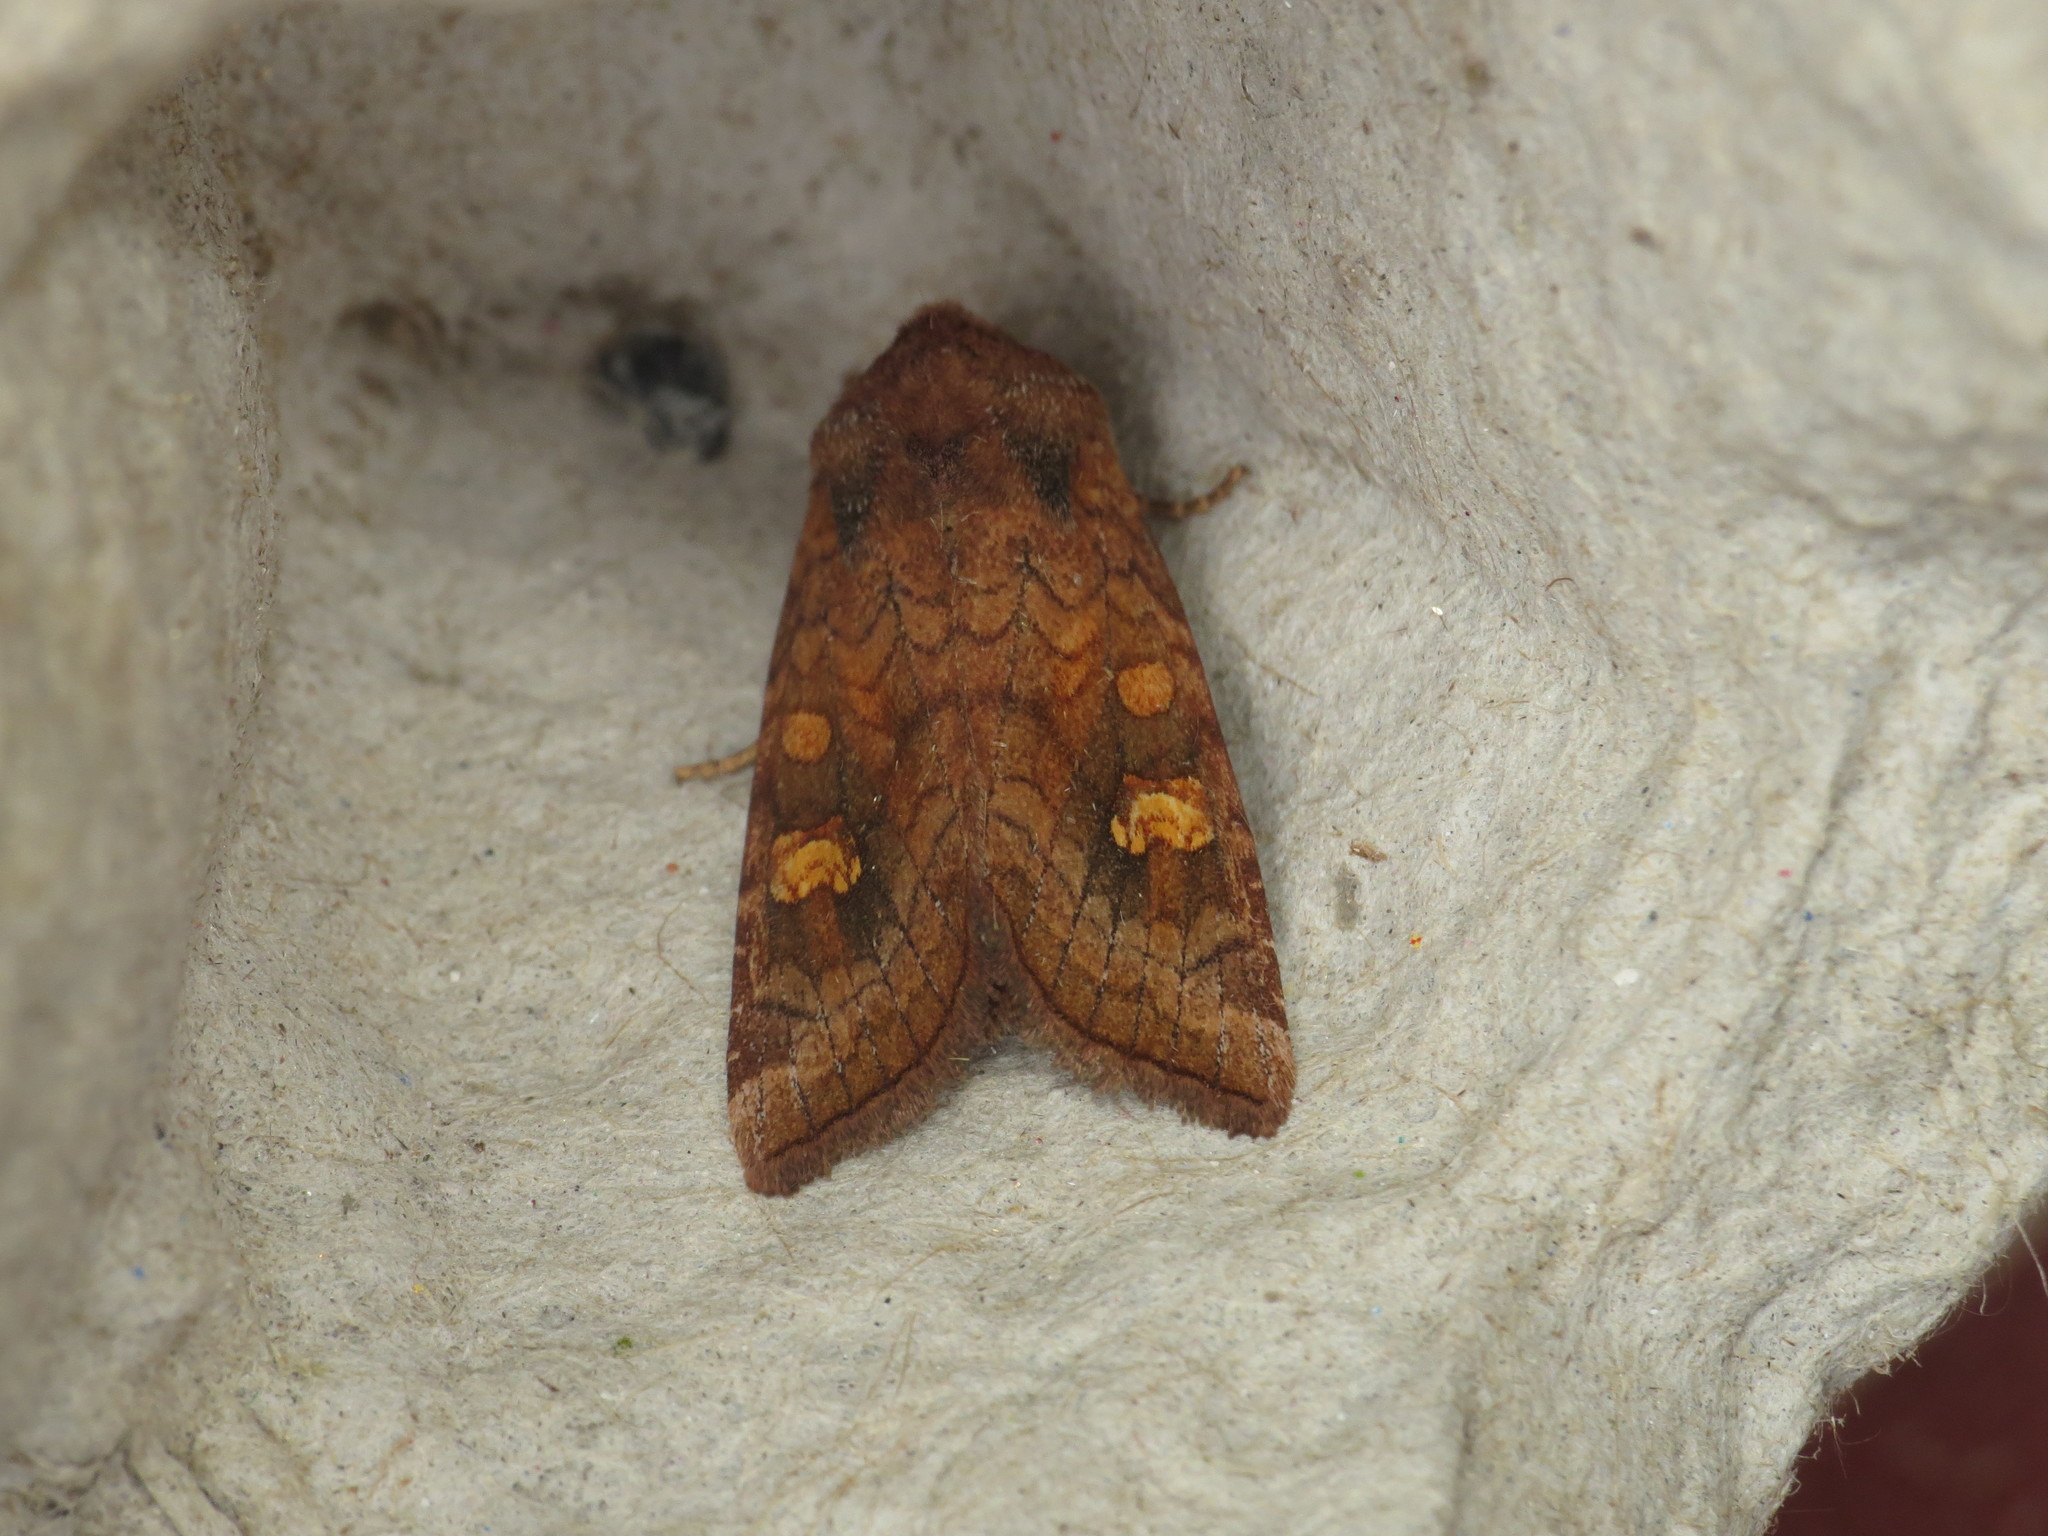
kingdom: Animalia
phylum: Arthropoda
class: Insecta
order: Lepidoptera
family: Noctuidae
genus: Amphipoea
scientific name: Amphipoea
